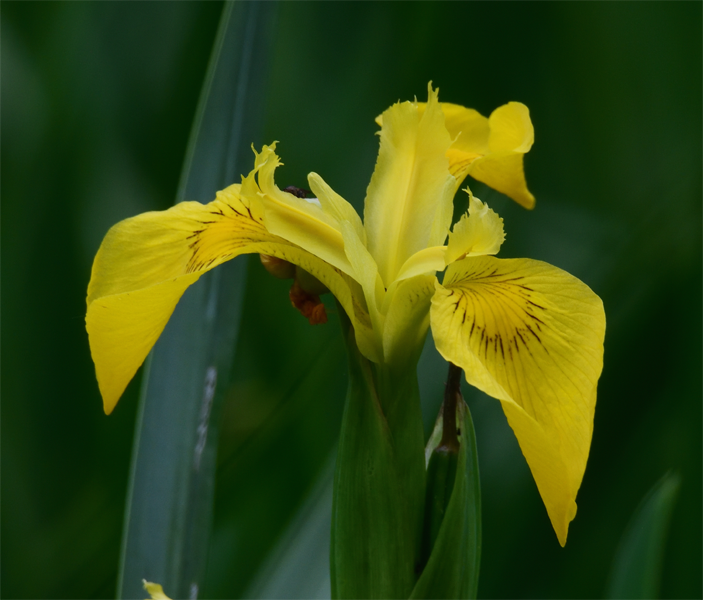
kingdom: Plantae
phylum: Tracheophyta
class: Liliopsida
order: Asparagales
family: Iridaceae
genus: Iris
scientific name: Iris pseudacorus
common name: Yellow flag
